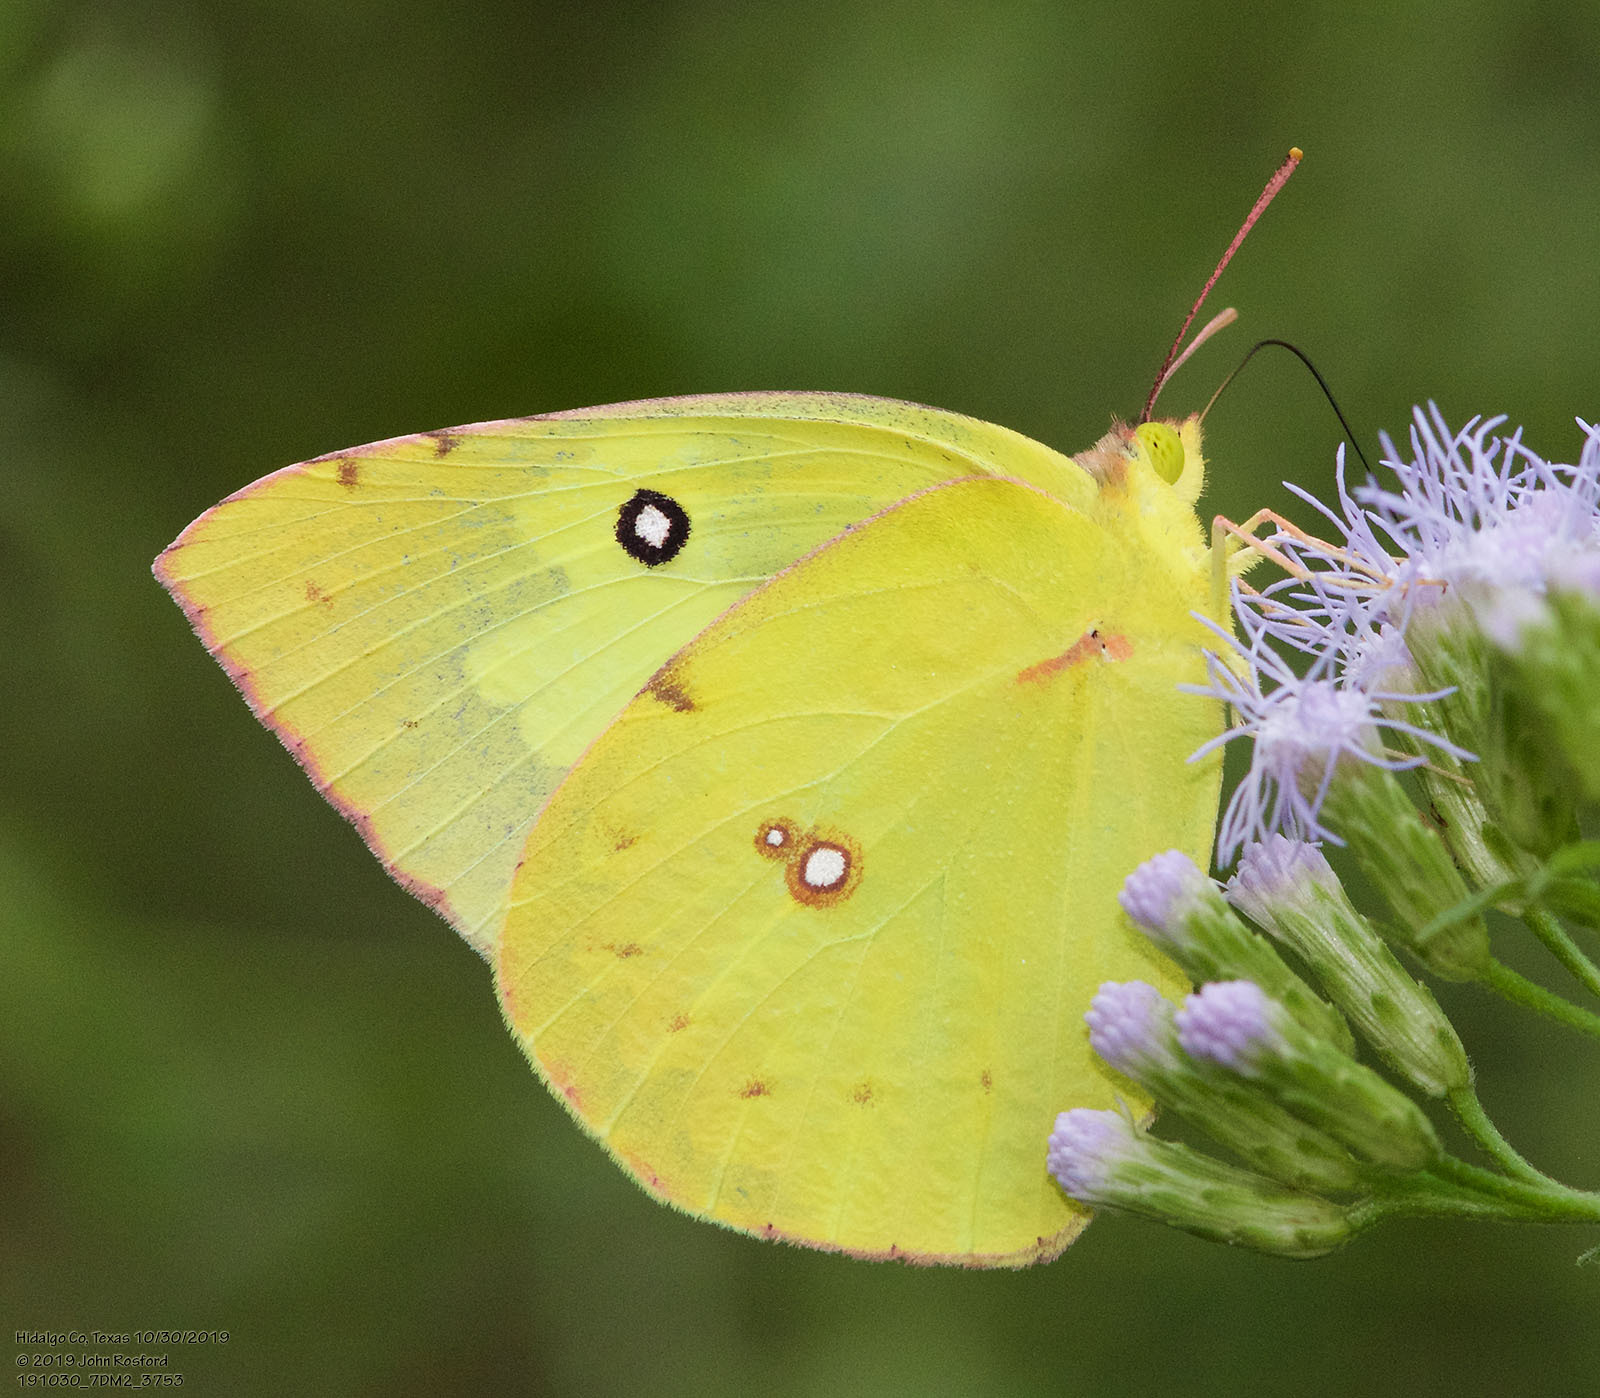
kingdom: Animalia
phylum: Arthropoda
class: Insecta
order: Lepidoptera
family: Pieridae
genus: Zerene
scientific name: Zerene cesonia
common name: Southern dogface
